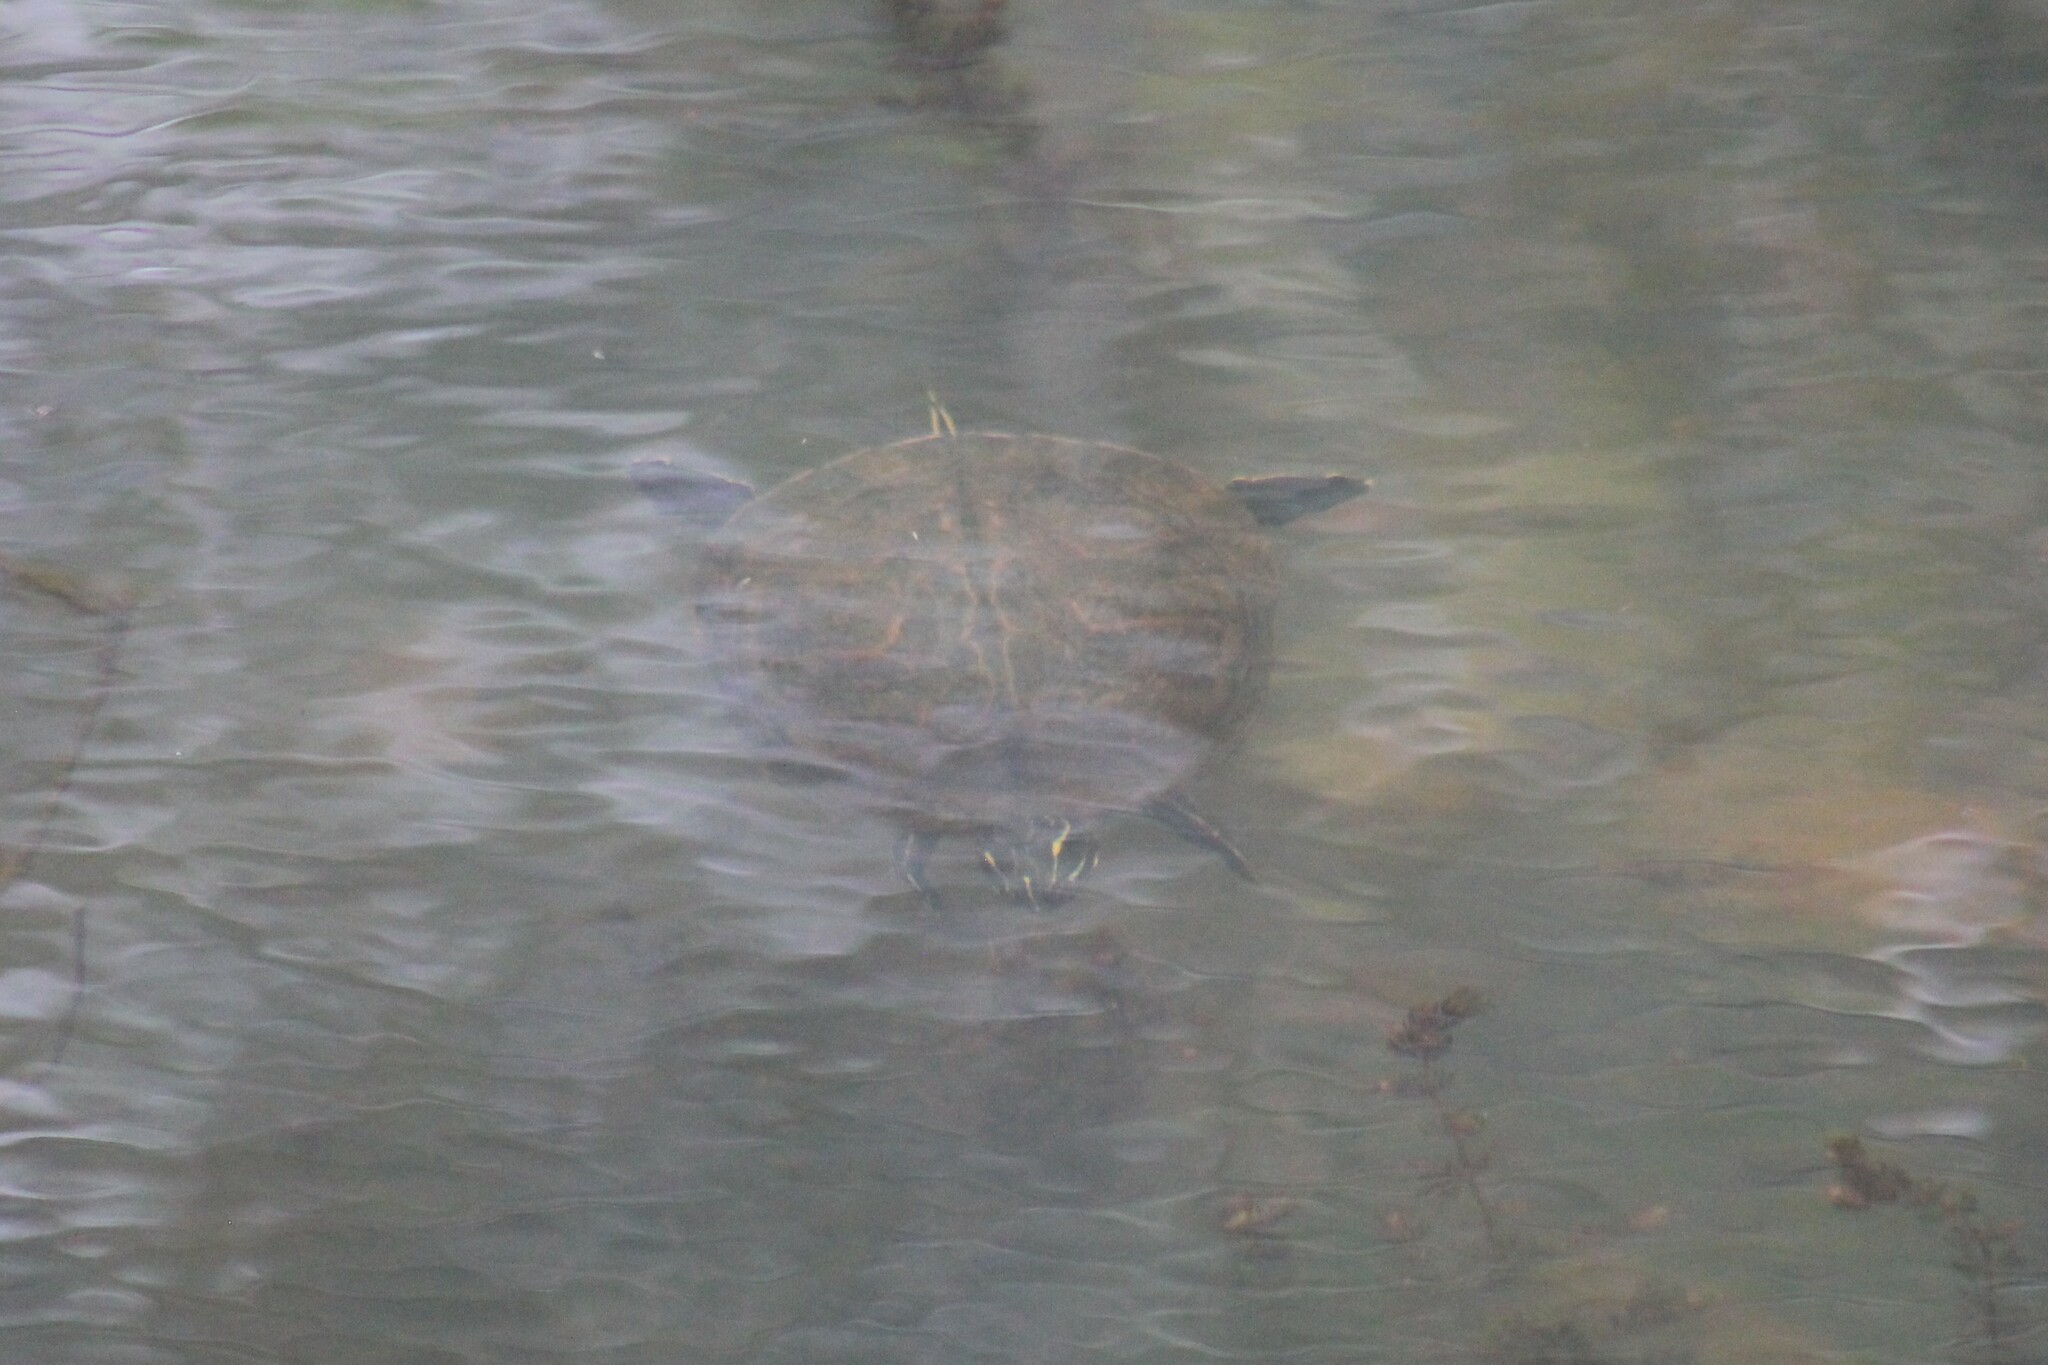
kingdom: Animalia
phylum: Chordata
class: Testudines
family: Emydidae
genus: Pseudemys
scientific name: Pseudemys concinna
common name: Eastern river cooter
